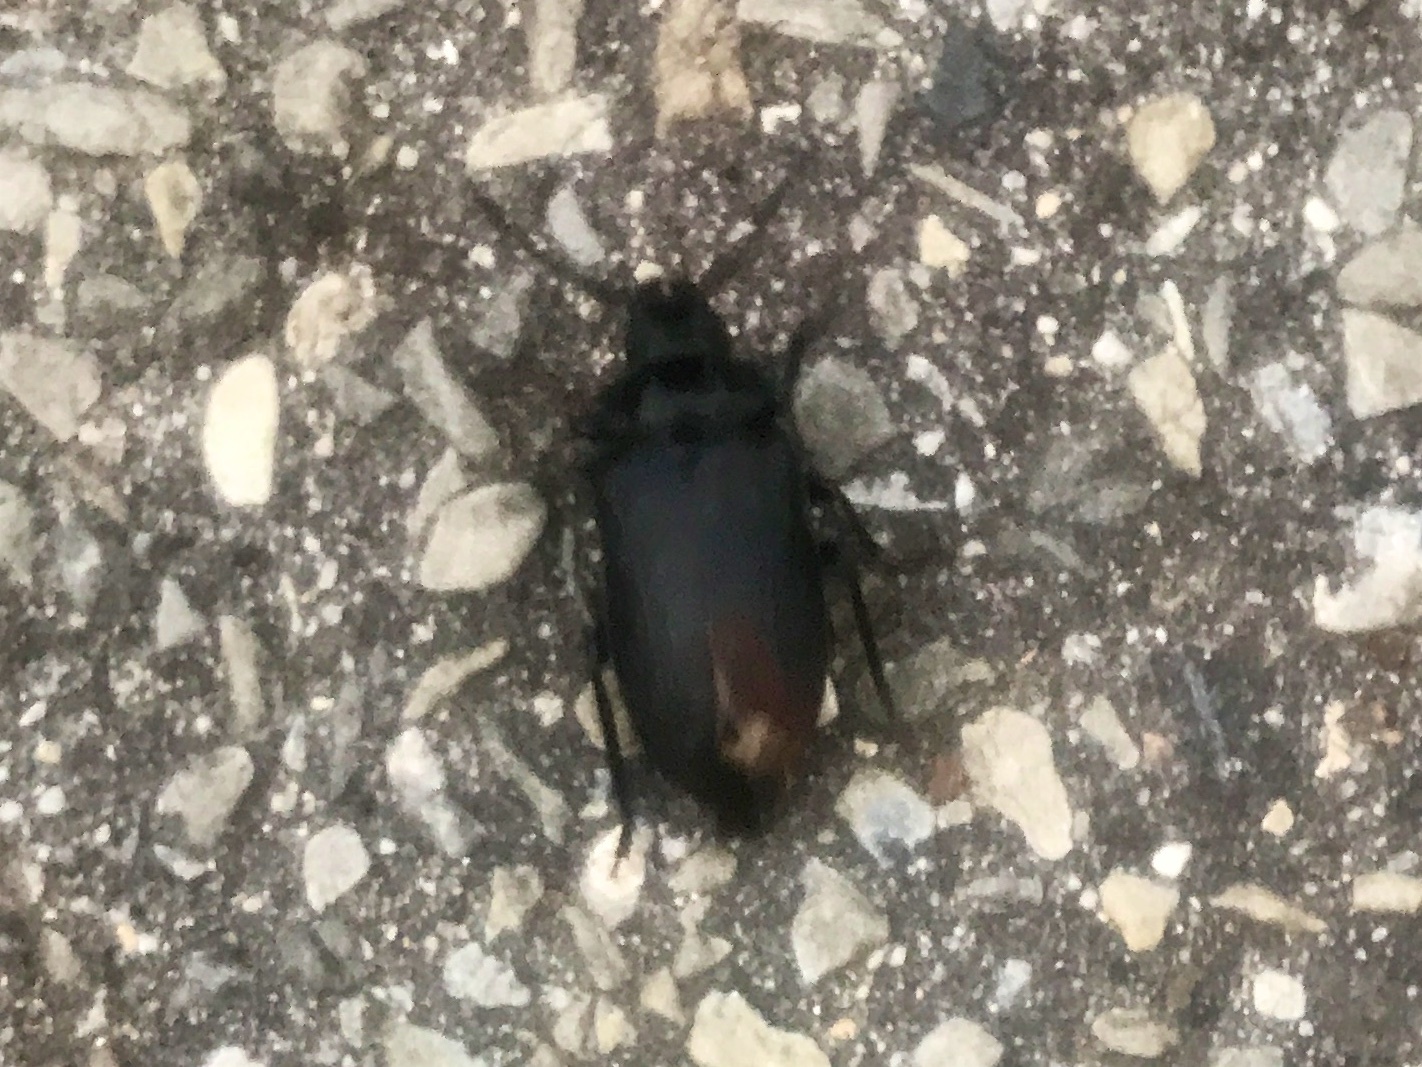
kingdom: Animalia
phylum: Arthropoda
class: Insecta
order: Coleoptera
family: Cerambycidae
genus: Prionus
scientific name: Prionus laticollis
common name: Broad necked prionus
